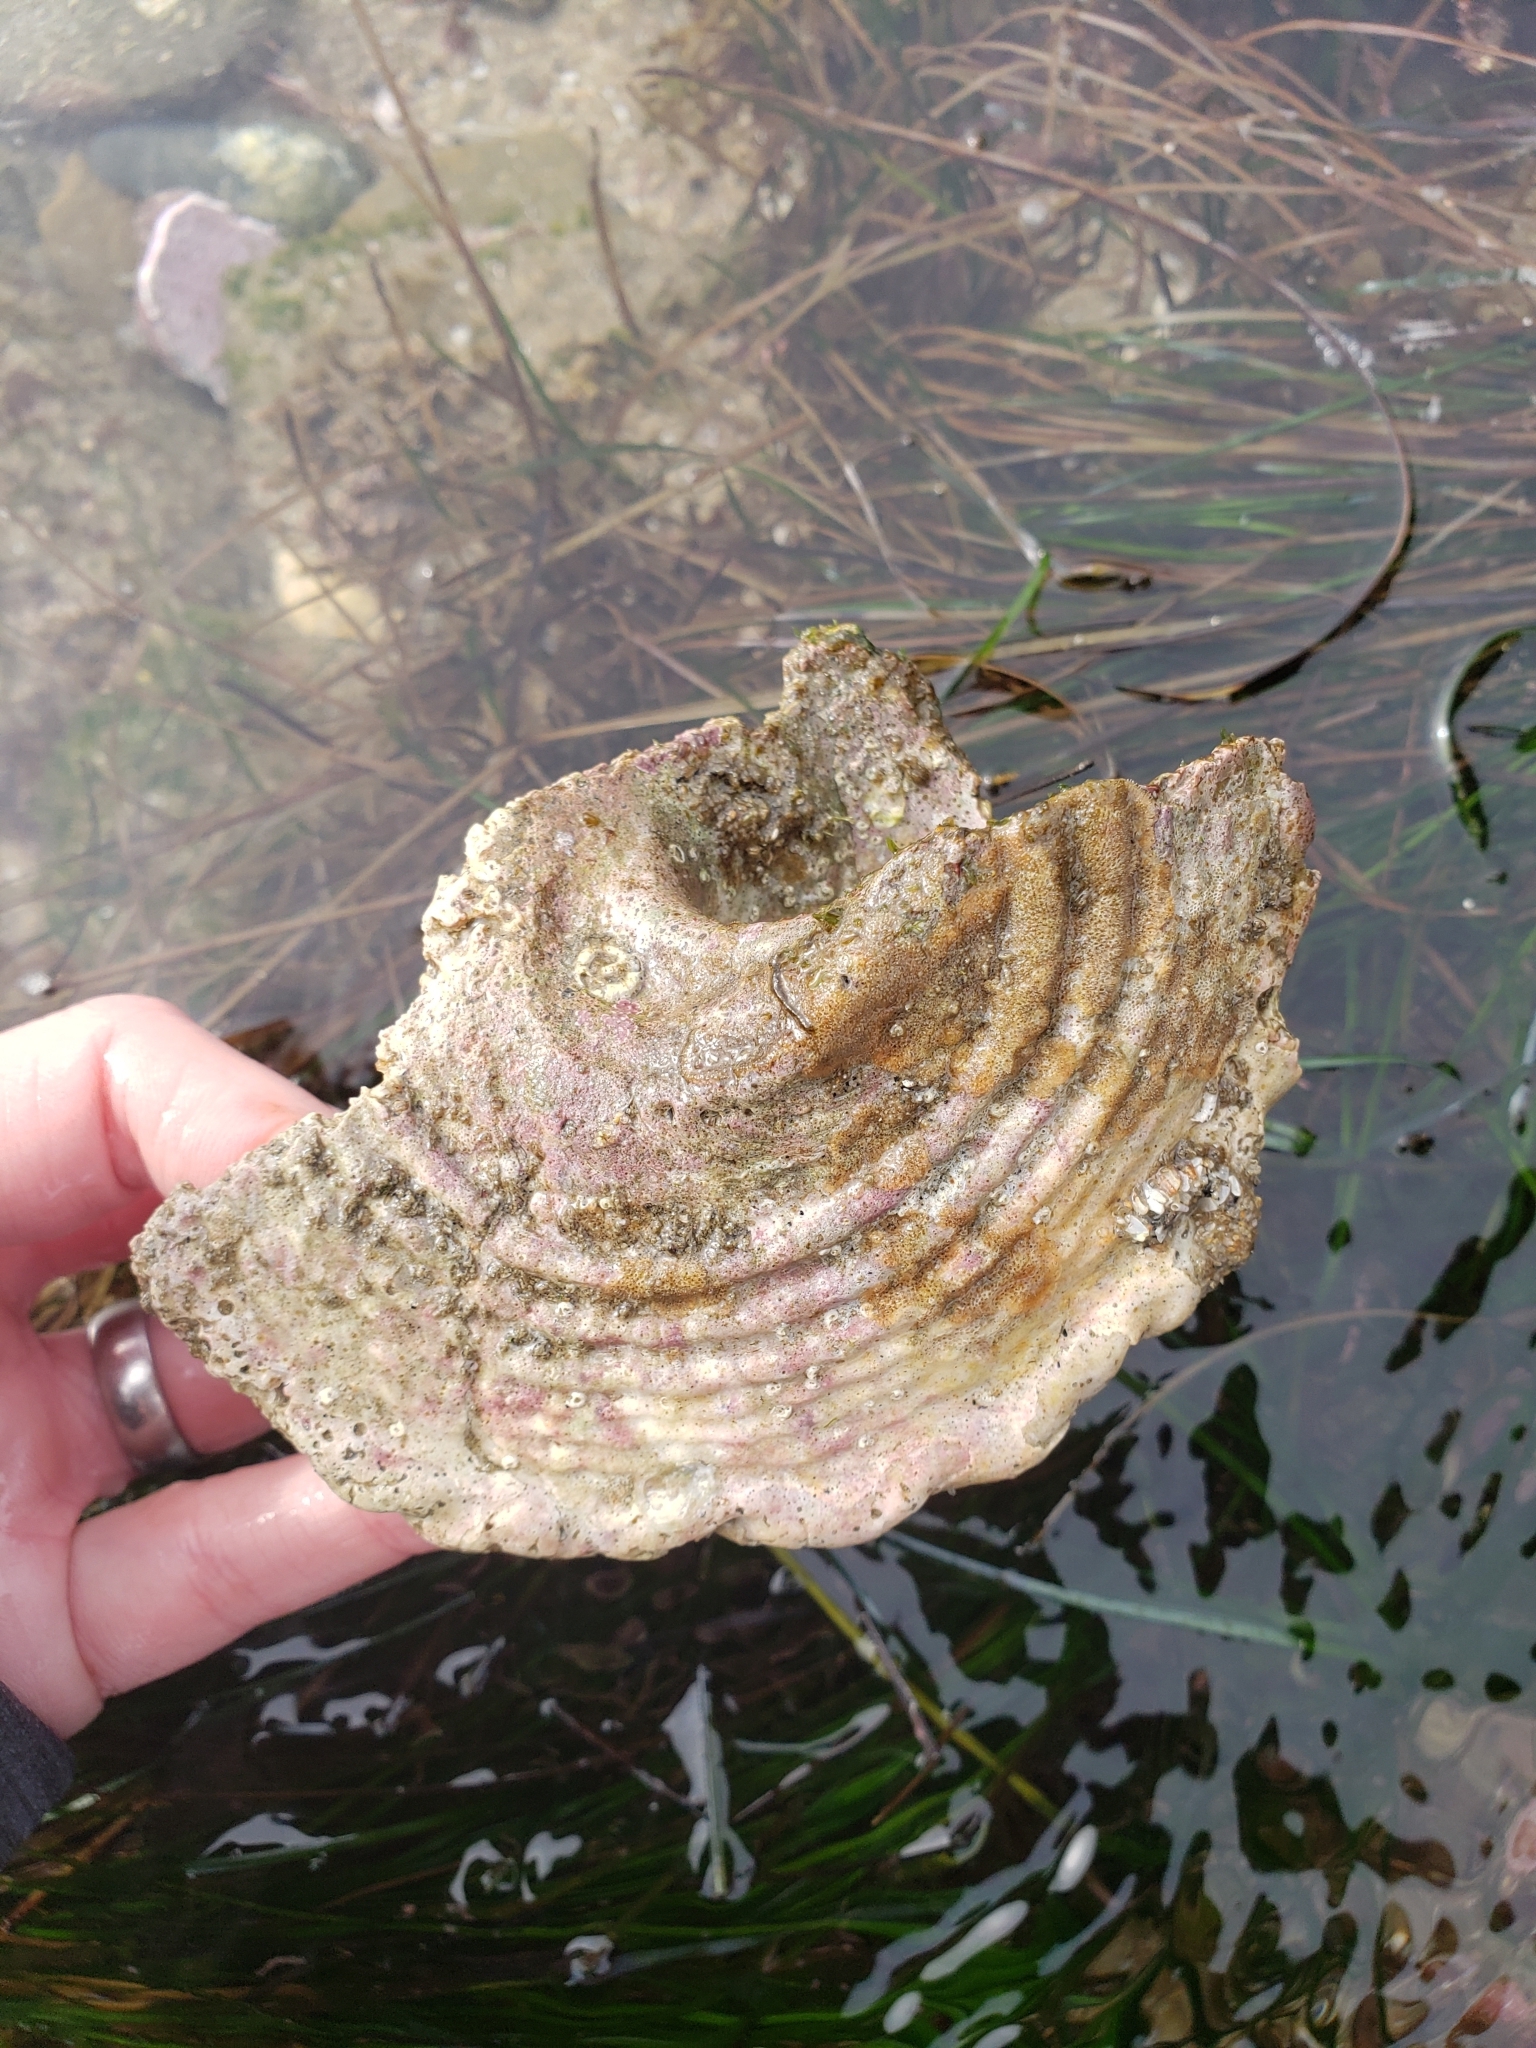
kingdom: Animalia
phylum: Mollusca
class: Gastropoda
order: Trochida
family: Turbinidae
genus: Megastraea
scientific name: Megastraea undosa
